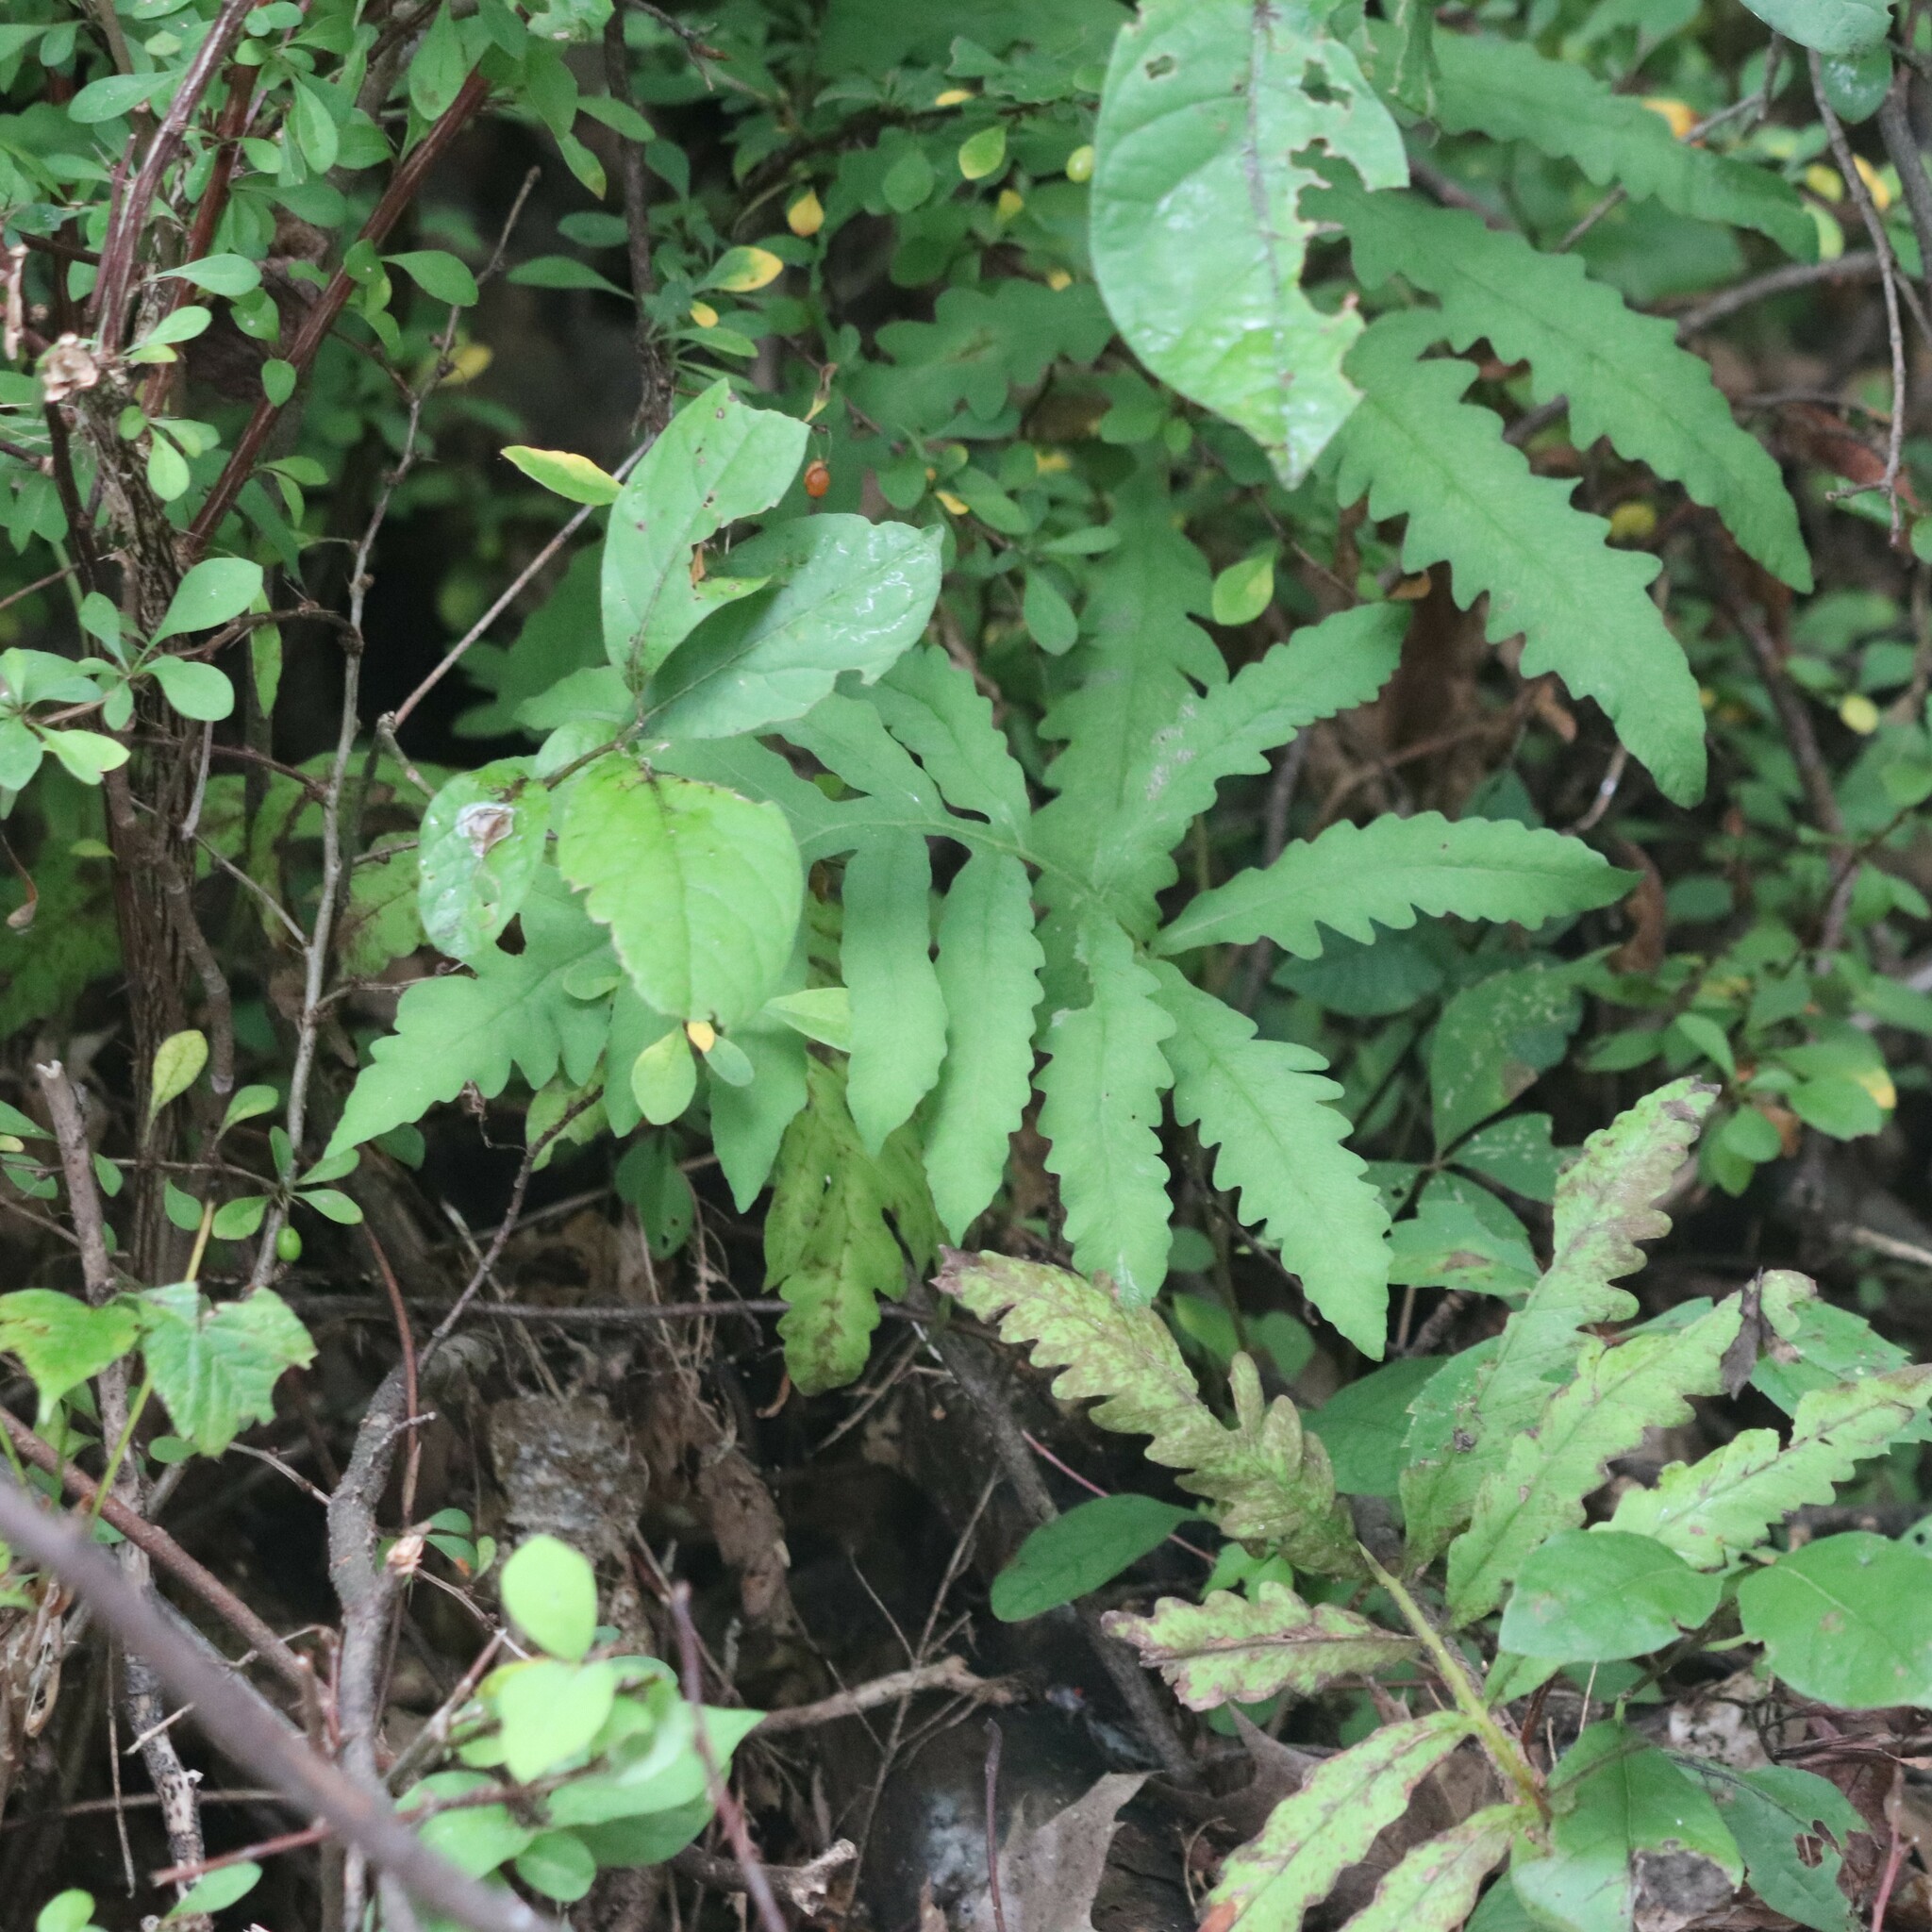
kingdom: Plantae
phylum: Tracheophyta
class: Polypodiopsida
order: Polypodiales
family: Onocleaceae
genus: Onoclea
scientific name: Onoclea sensibilis
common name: Sensitive fern
